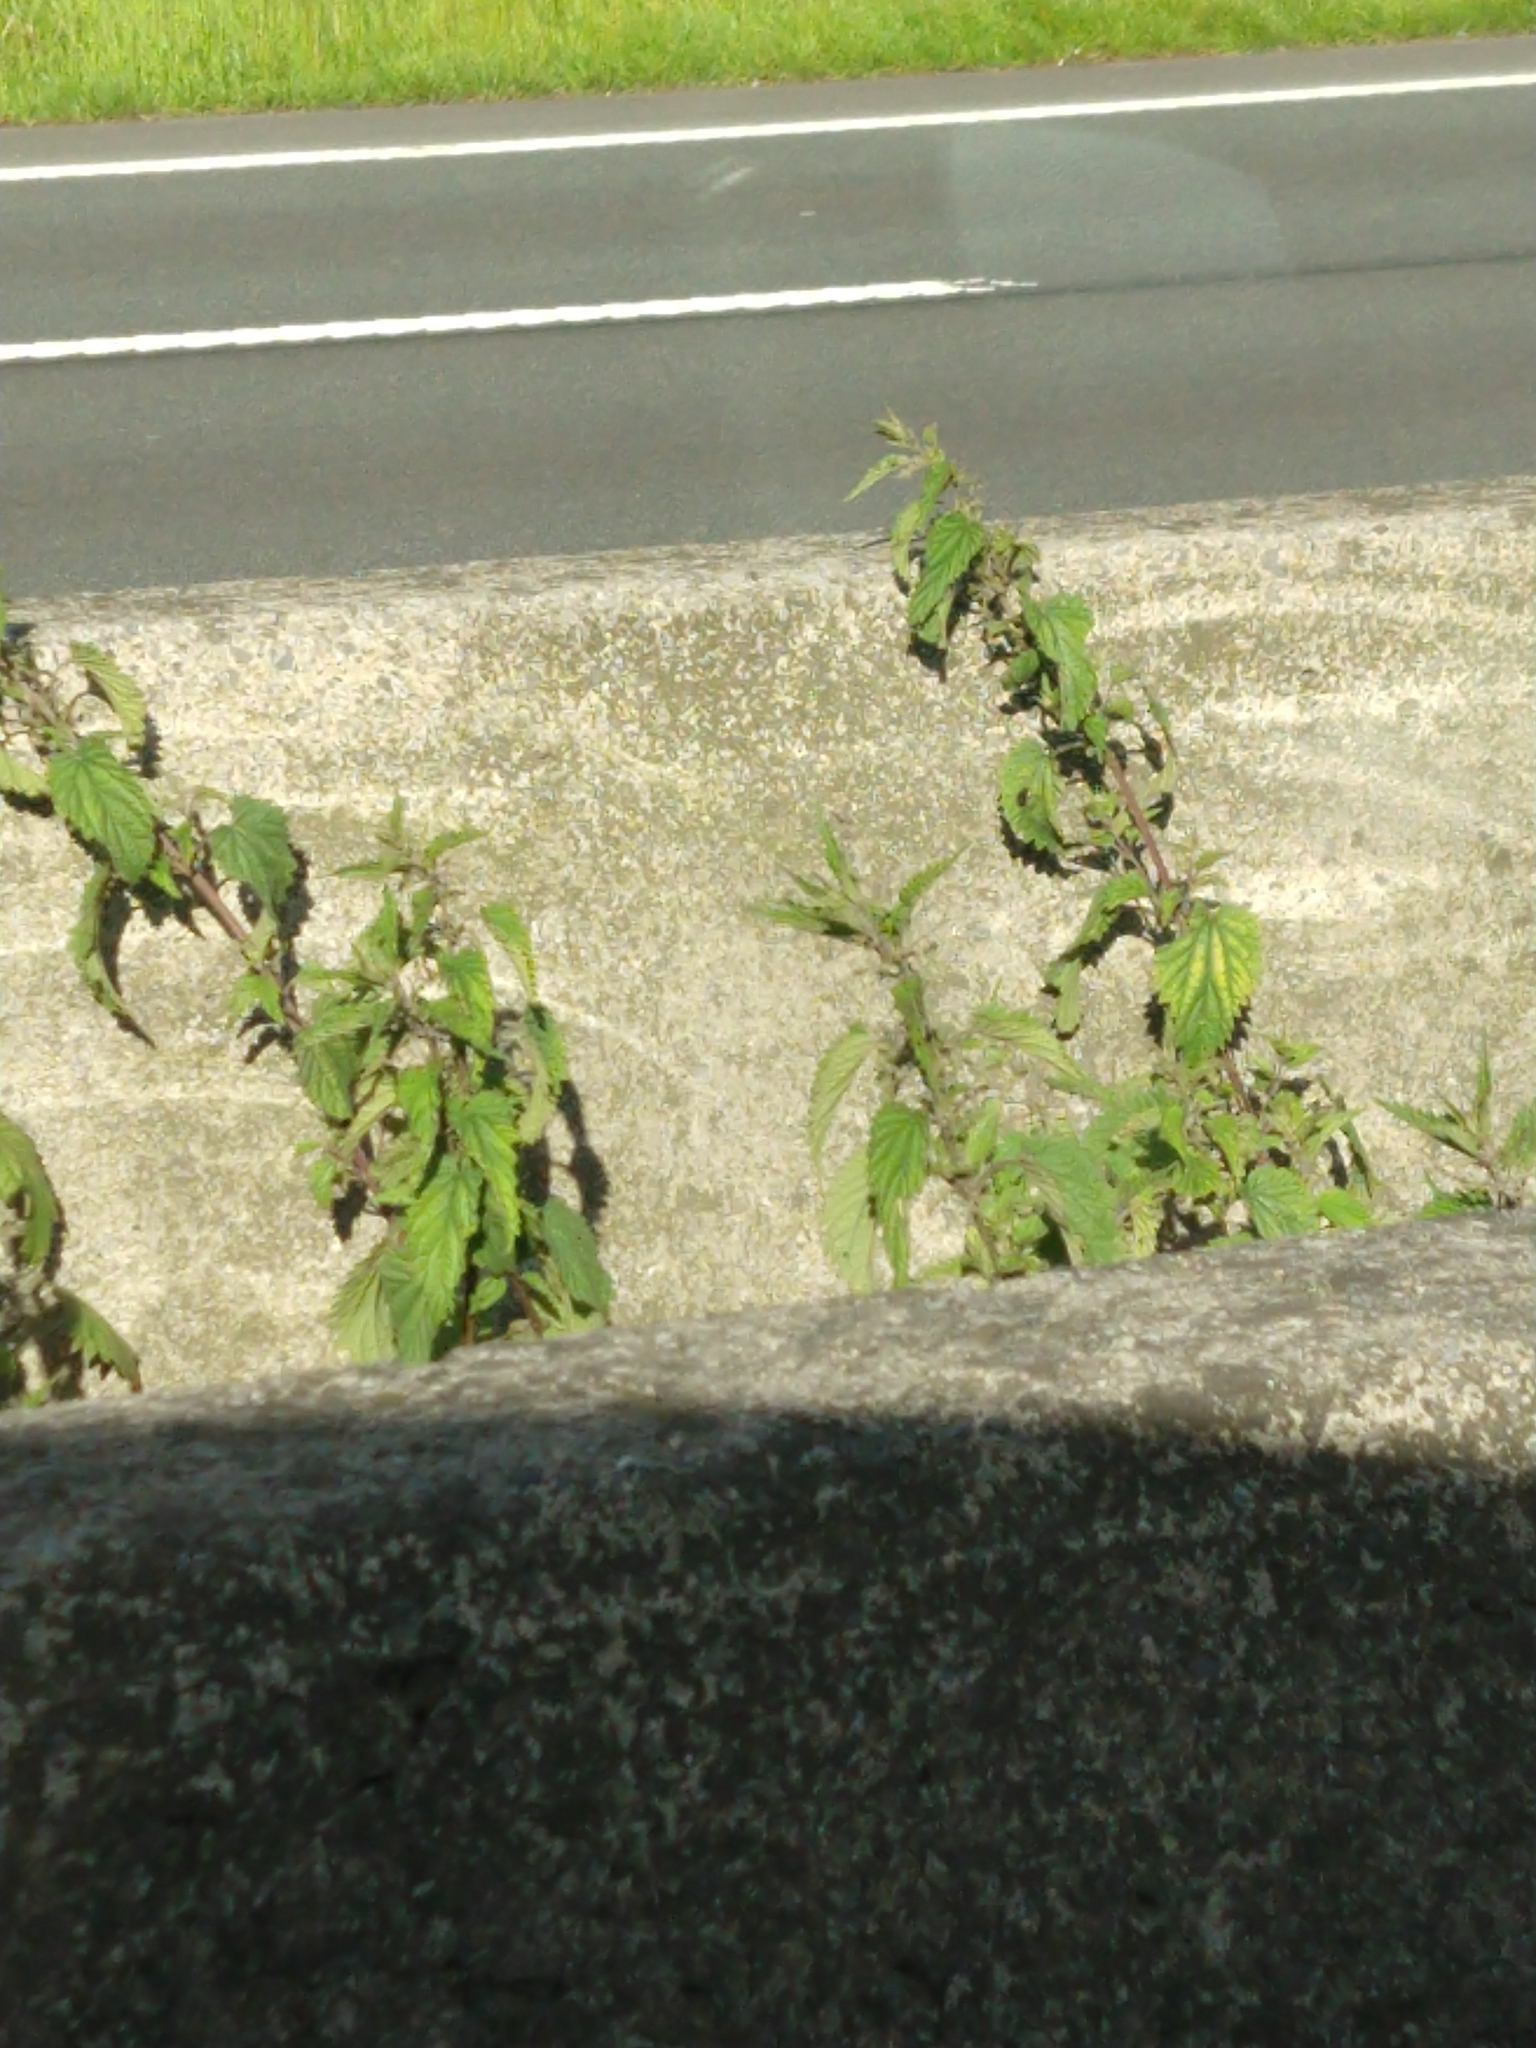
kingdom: Plantae
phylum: Tracheophyta
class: Magnoliopsida
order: Rosales
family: Urticaceae
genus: Urtica
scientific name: Urtica dioica
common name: Common nettle
